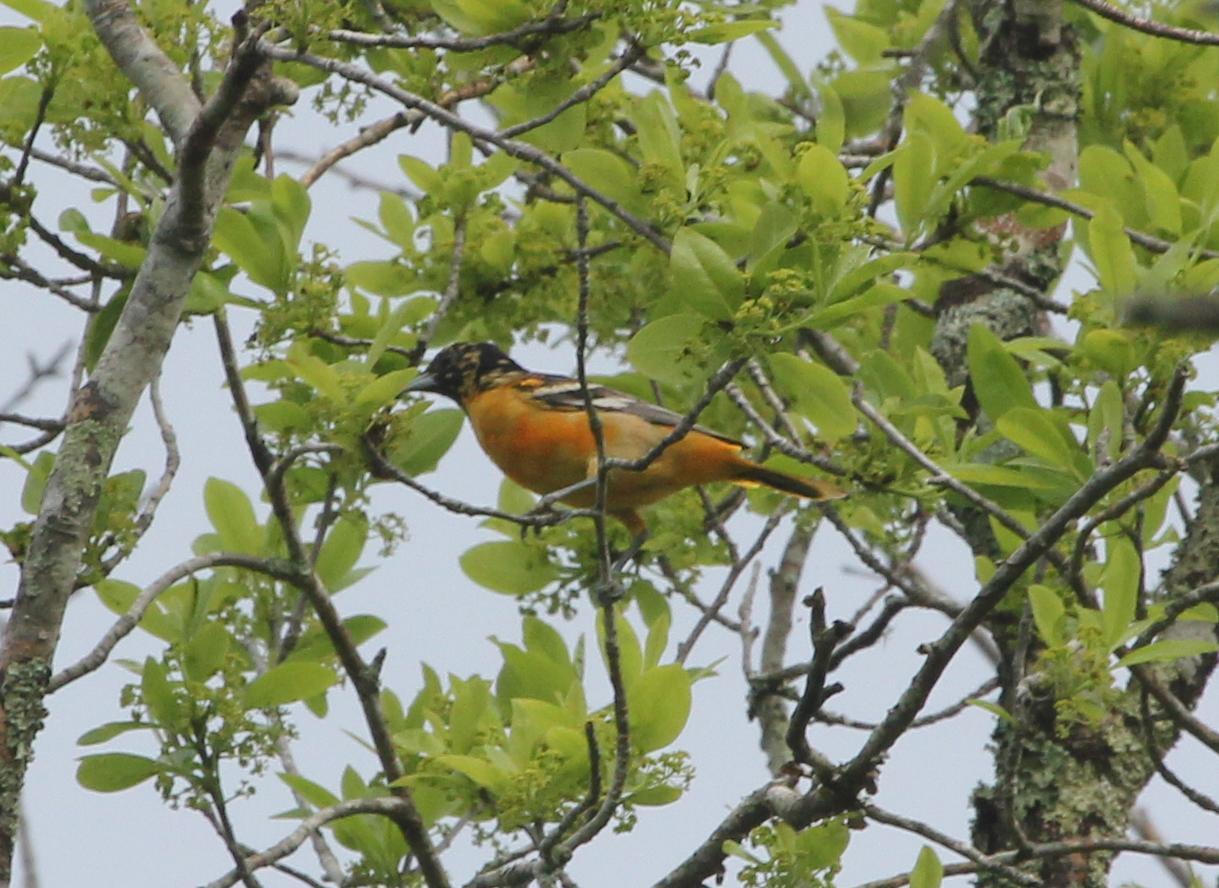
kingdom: Animalia
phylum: Chordata
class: Aves
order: Passeriformes
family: Icteridae
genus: Icterus
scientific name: Icterus galbula
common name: Baltimore oriole
